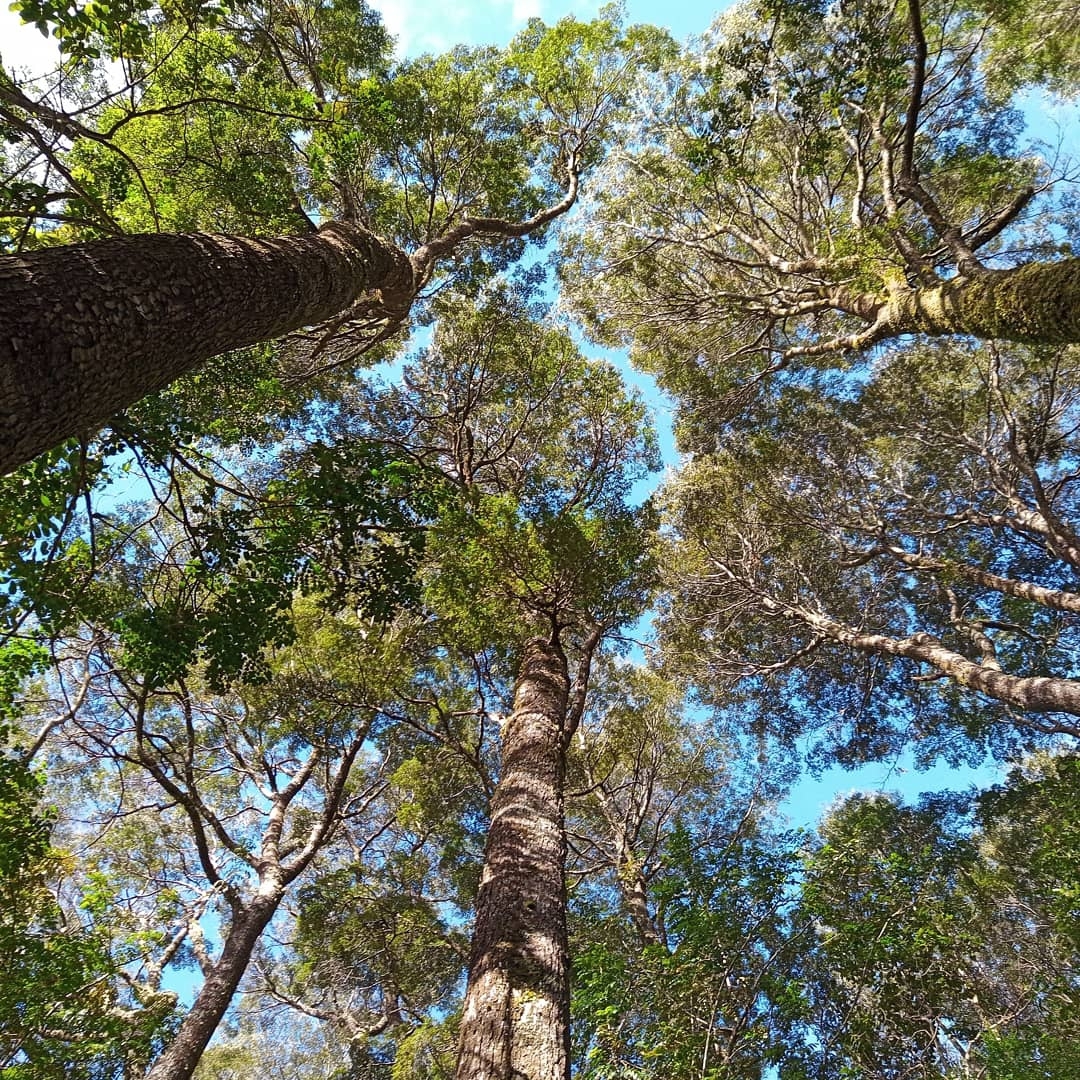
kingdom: Plantae
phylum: Tracheophyta
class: Magnoliopsida
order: Fagales
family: Nothofagaceae
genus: Nothofagus
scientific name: Nothofagus dombeyi
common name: Coigue
